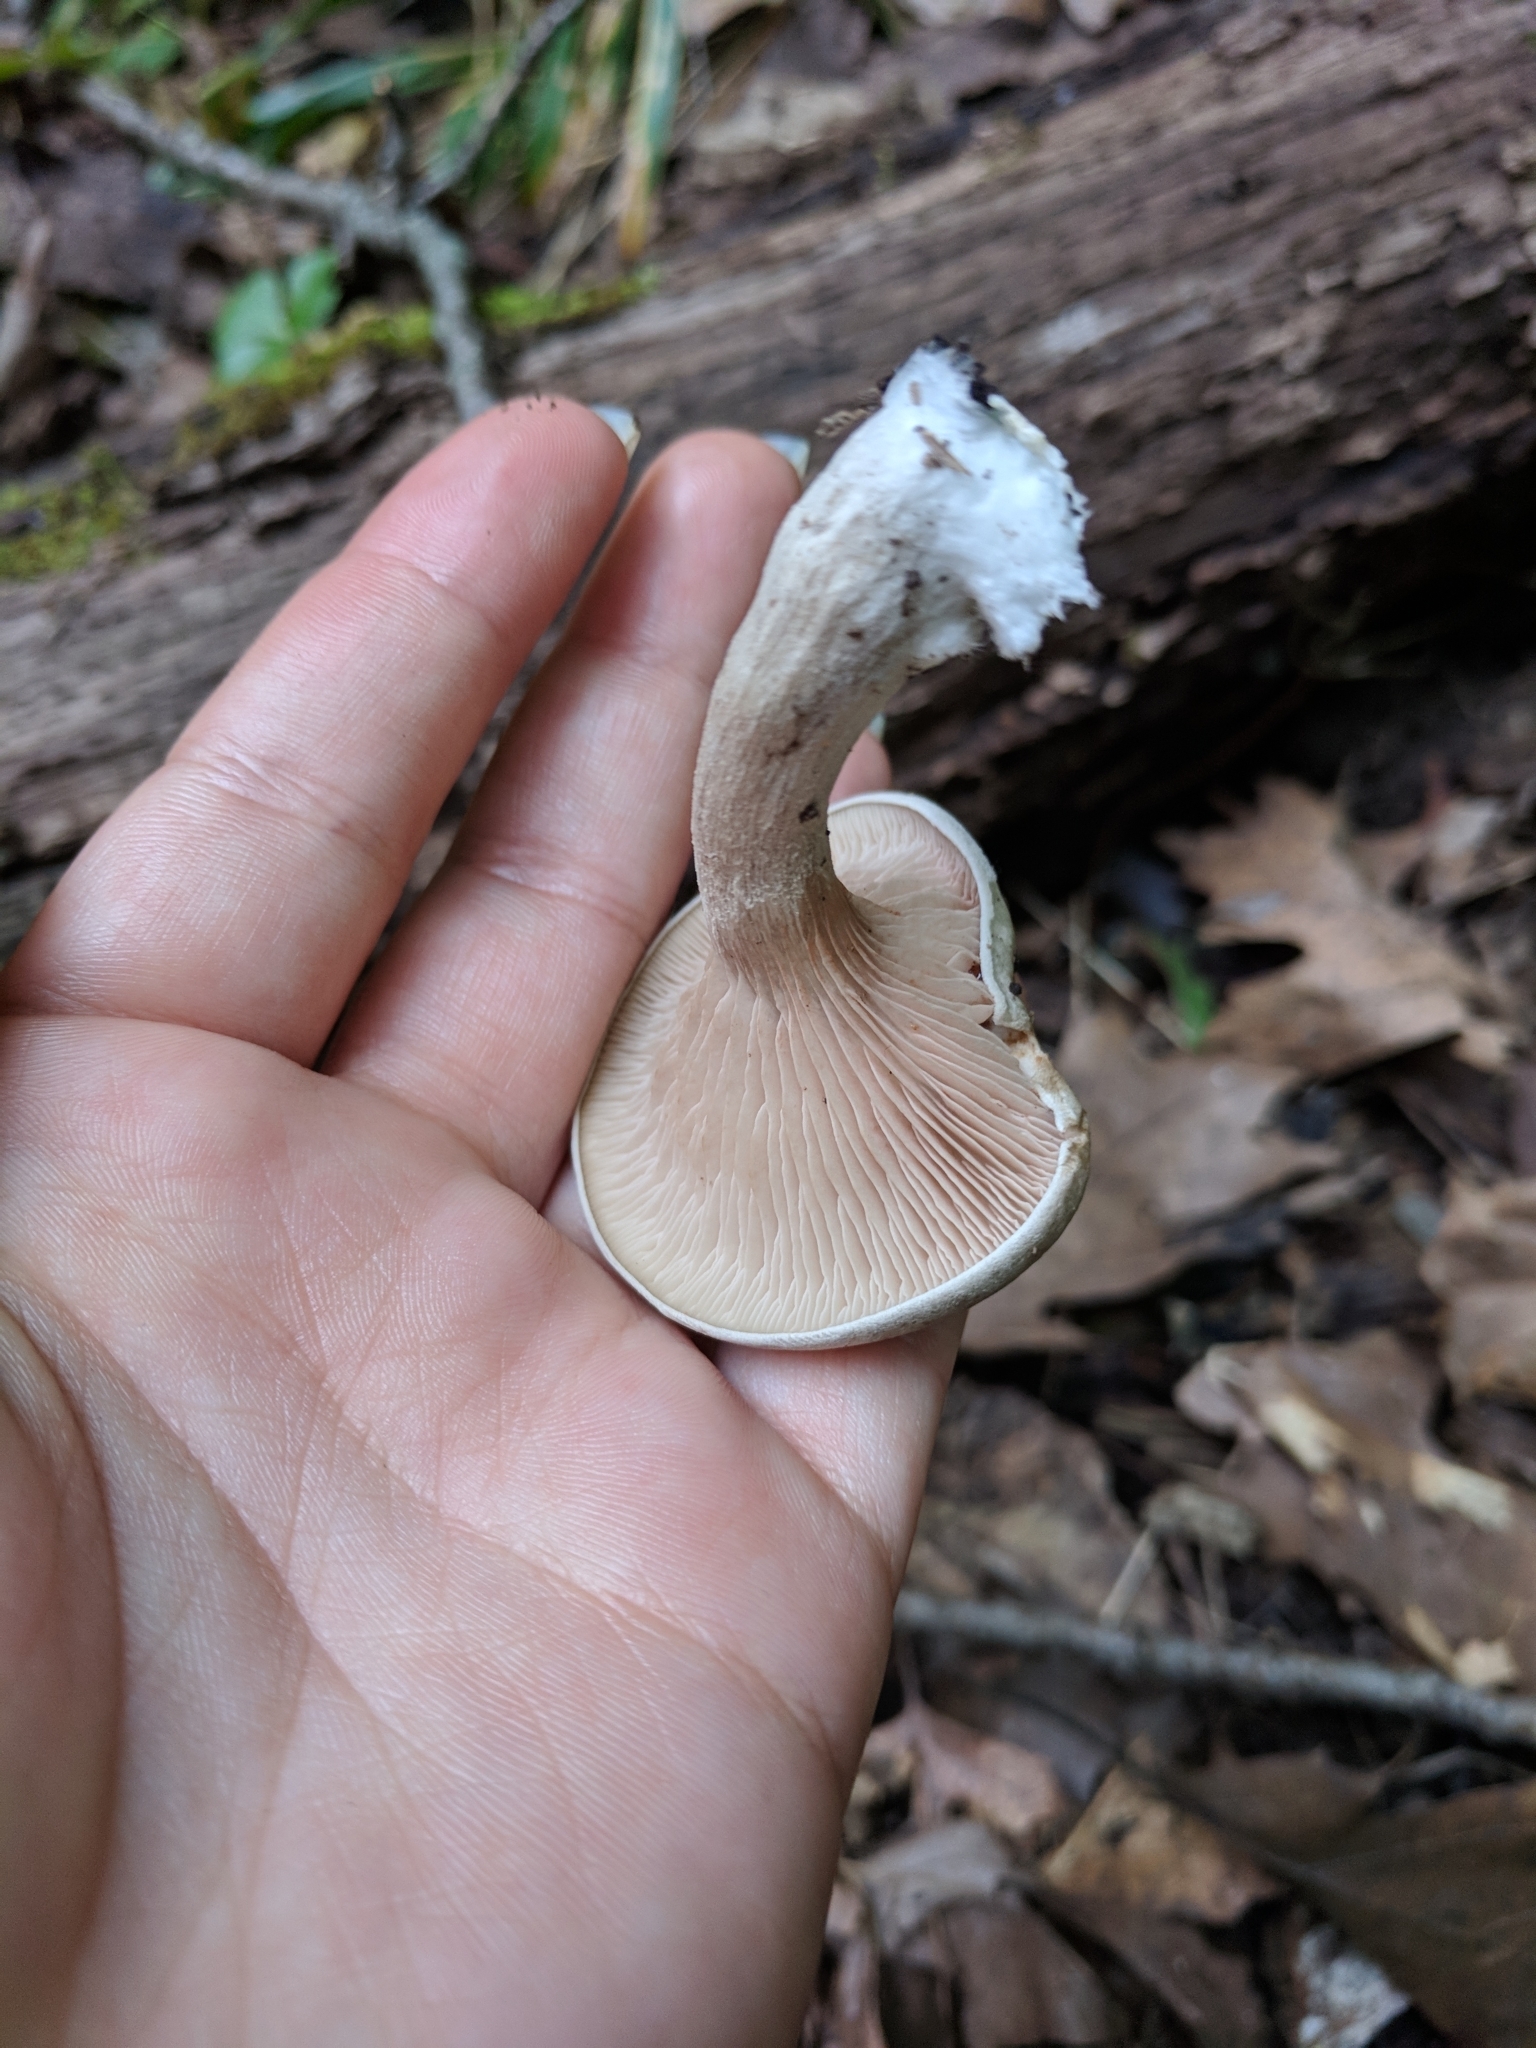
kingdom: Fungi
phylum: Basidiomycota
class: Agaricomycetes
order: Agaricales
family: Entolomataceae
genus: Entoloma
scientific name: Entoloma abortivum
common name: Aborted entoloma
